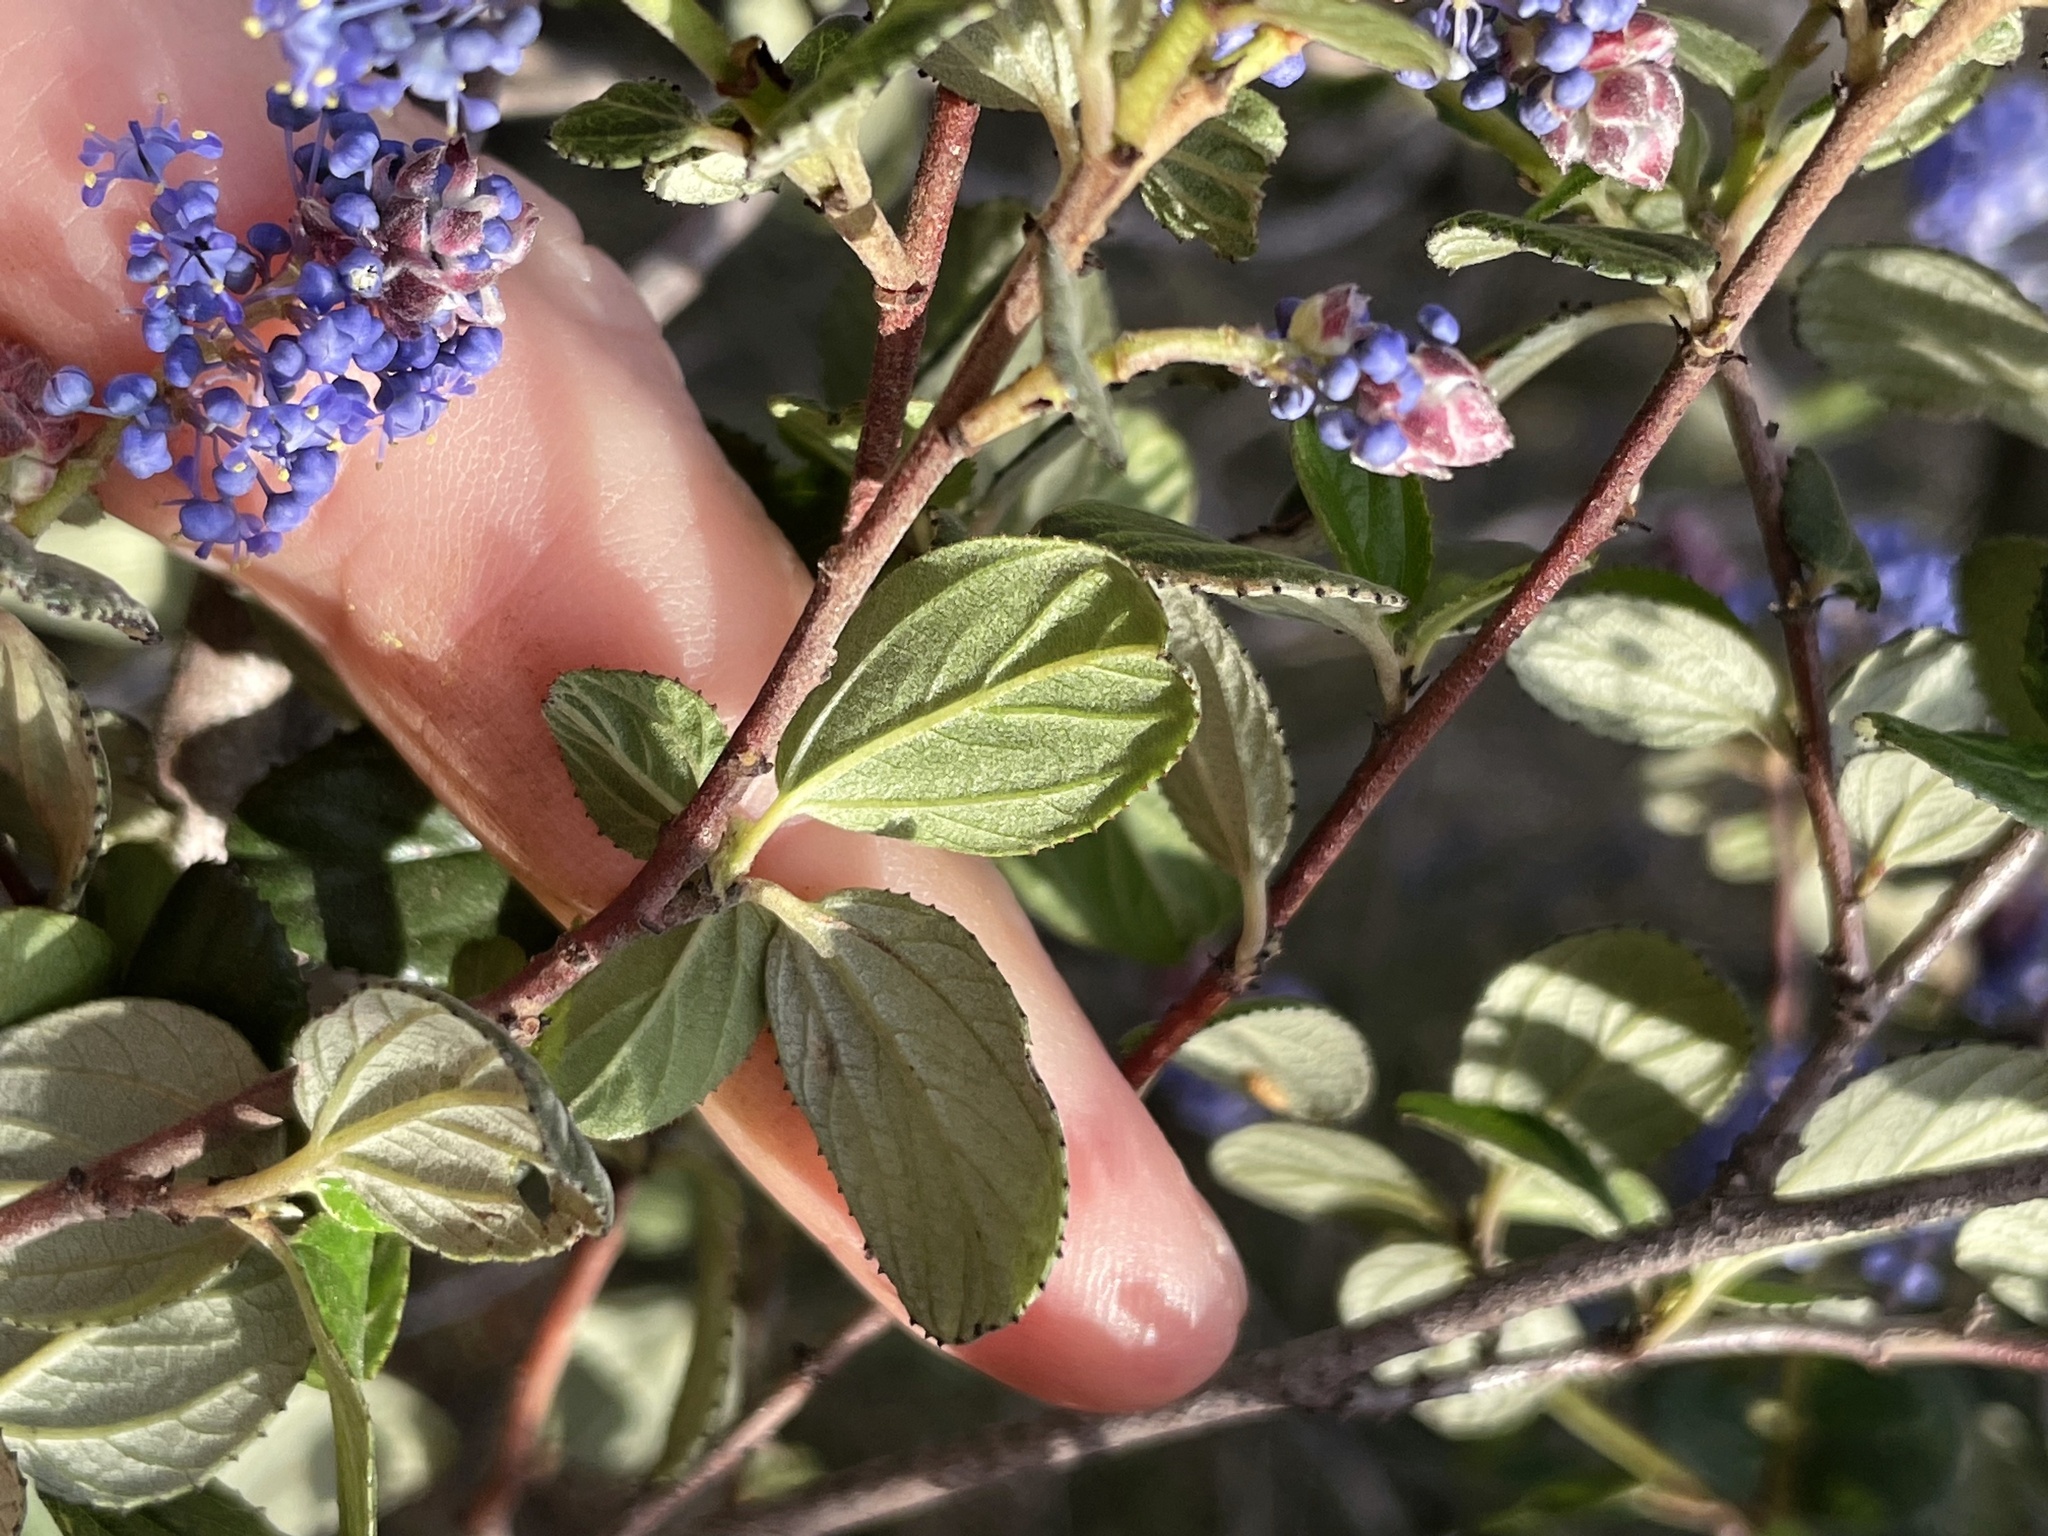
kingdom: Plantae
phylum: Tracheophyta
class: Magnoliopsida
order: Rosales
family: Rhamnaceae
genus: Ceanothus
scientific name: Ceanothus tomentosus
